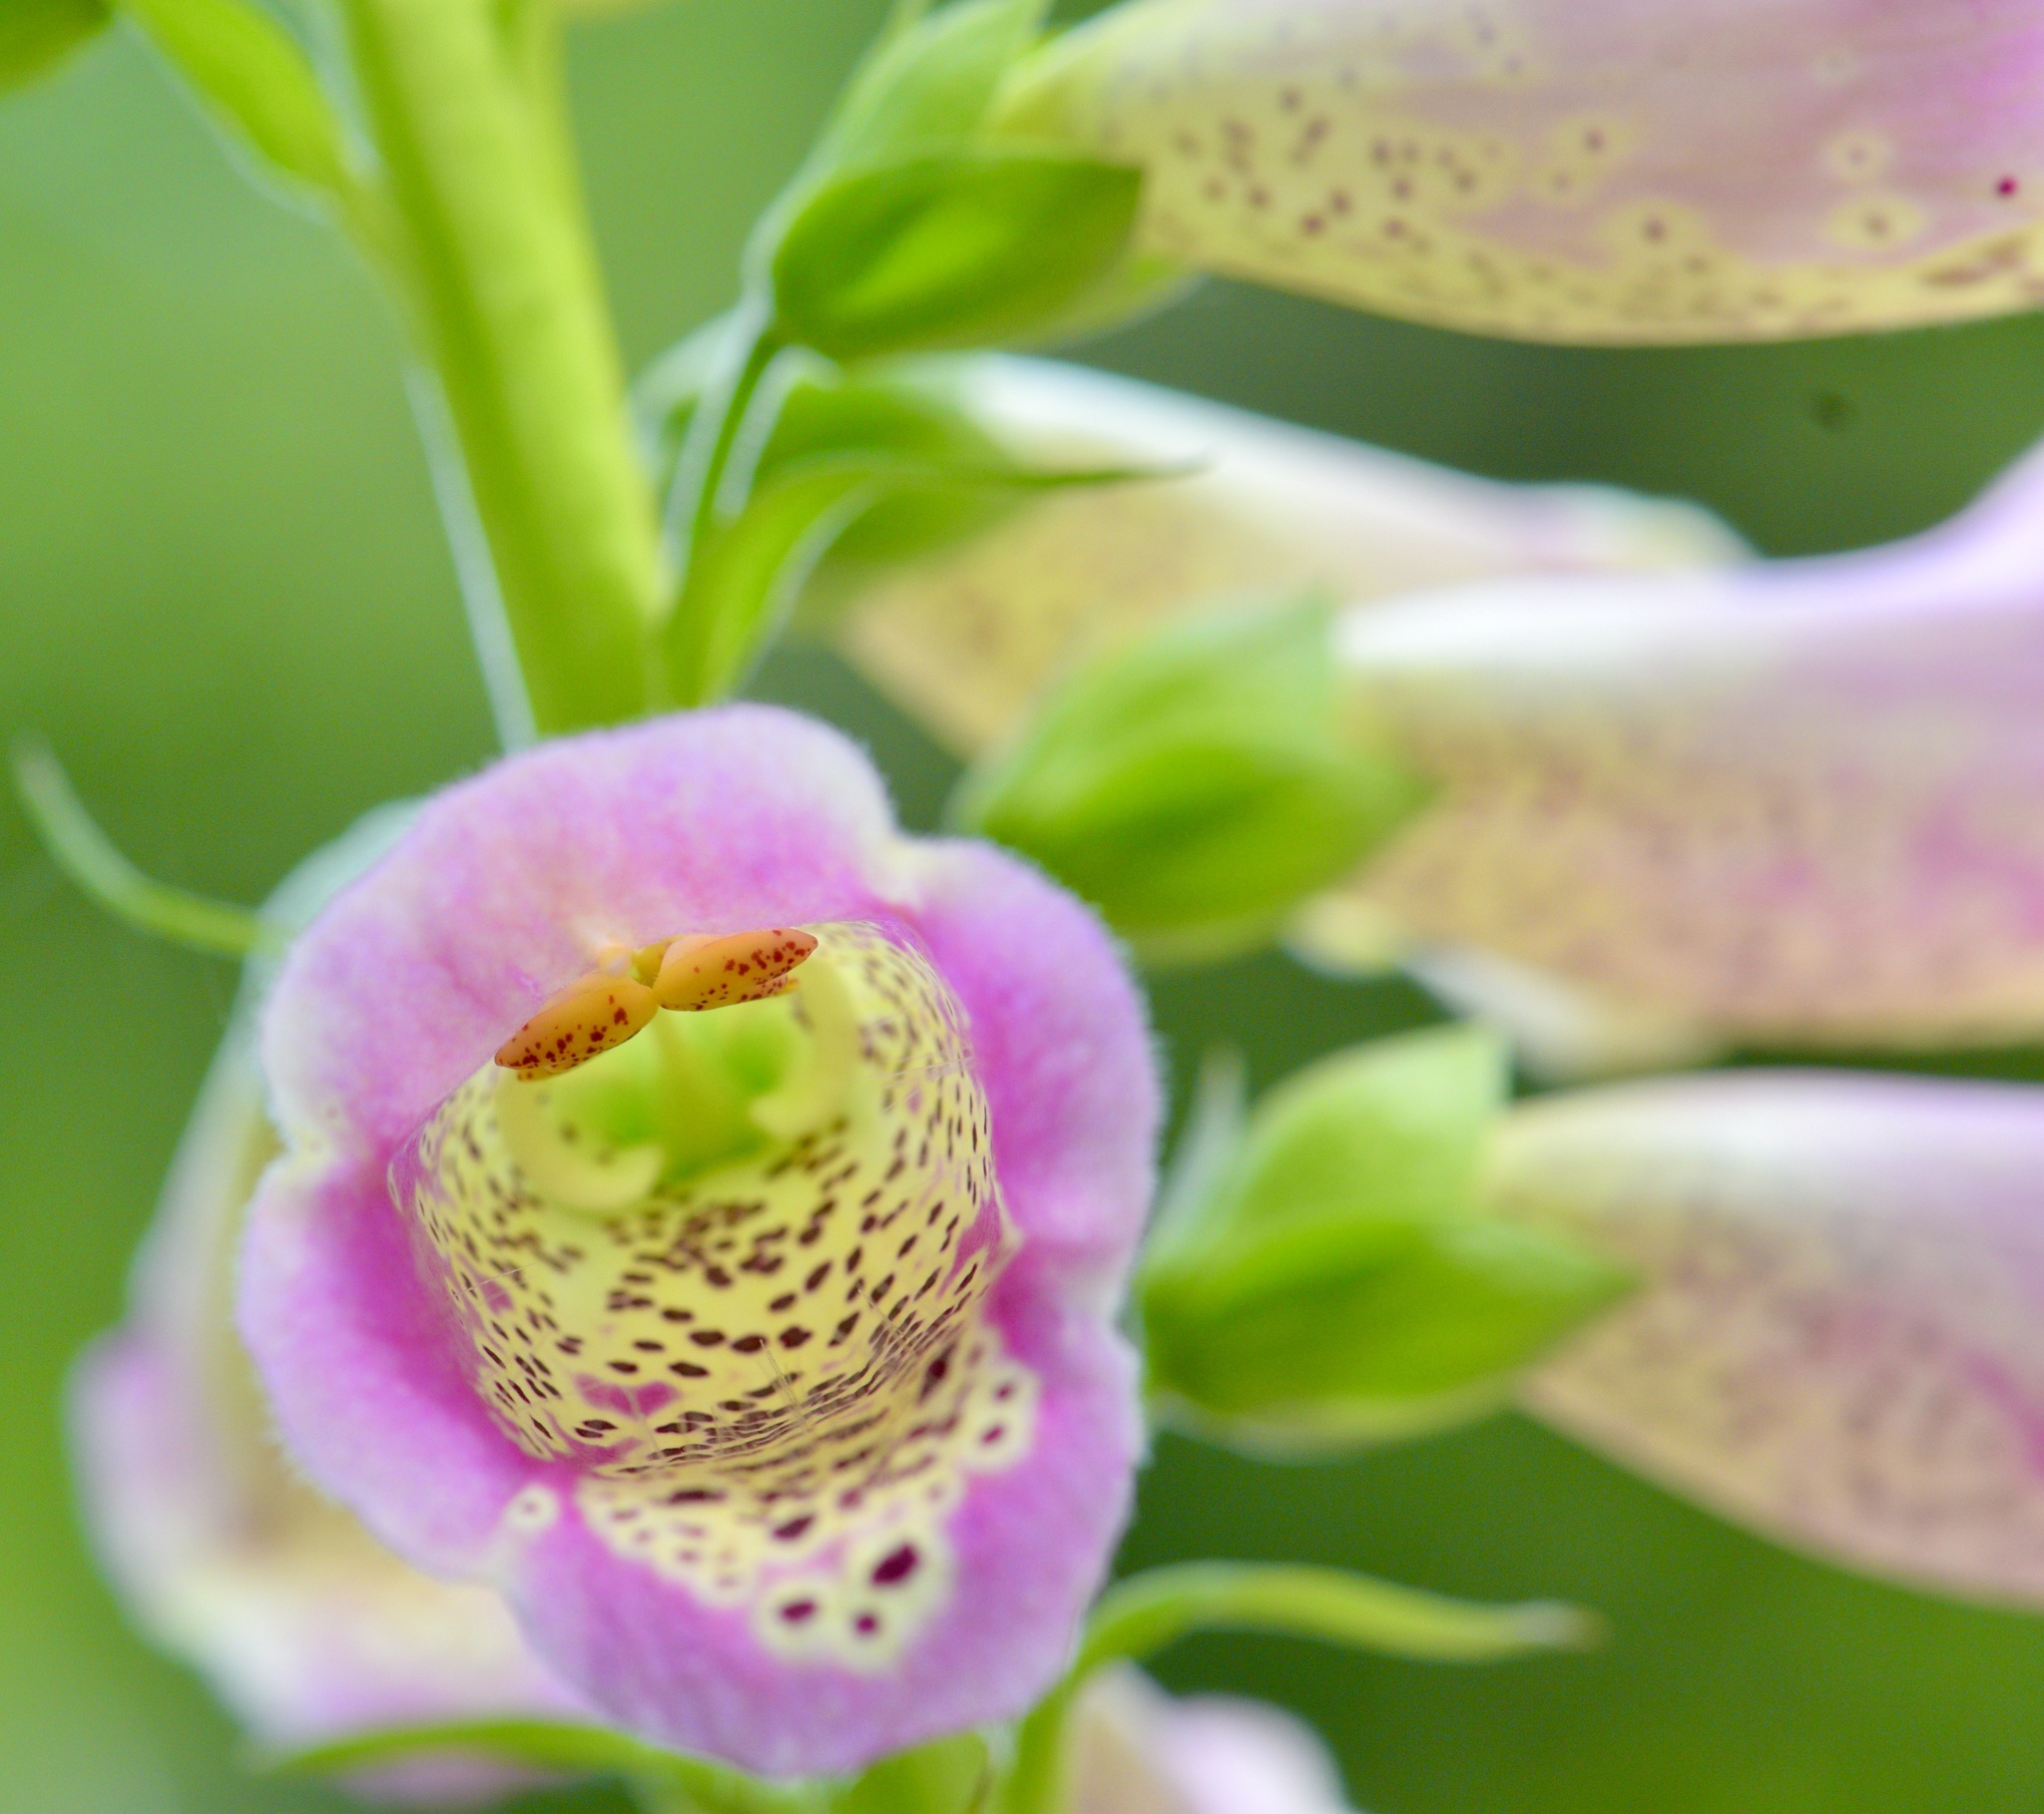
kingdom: Plantae
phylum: Tracheophyta
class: Magnoliopsida
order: Lamiales
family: Plantaginaceae
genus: Digitalis
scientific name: Digitalis purpurea
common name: Foxglove
